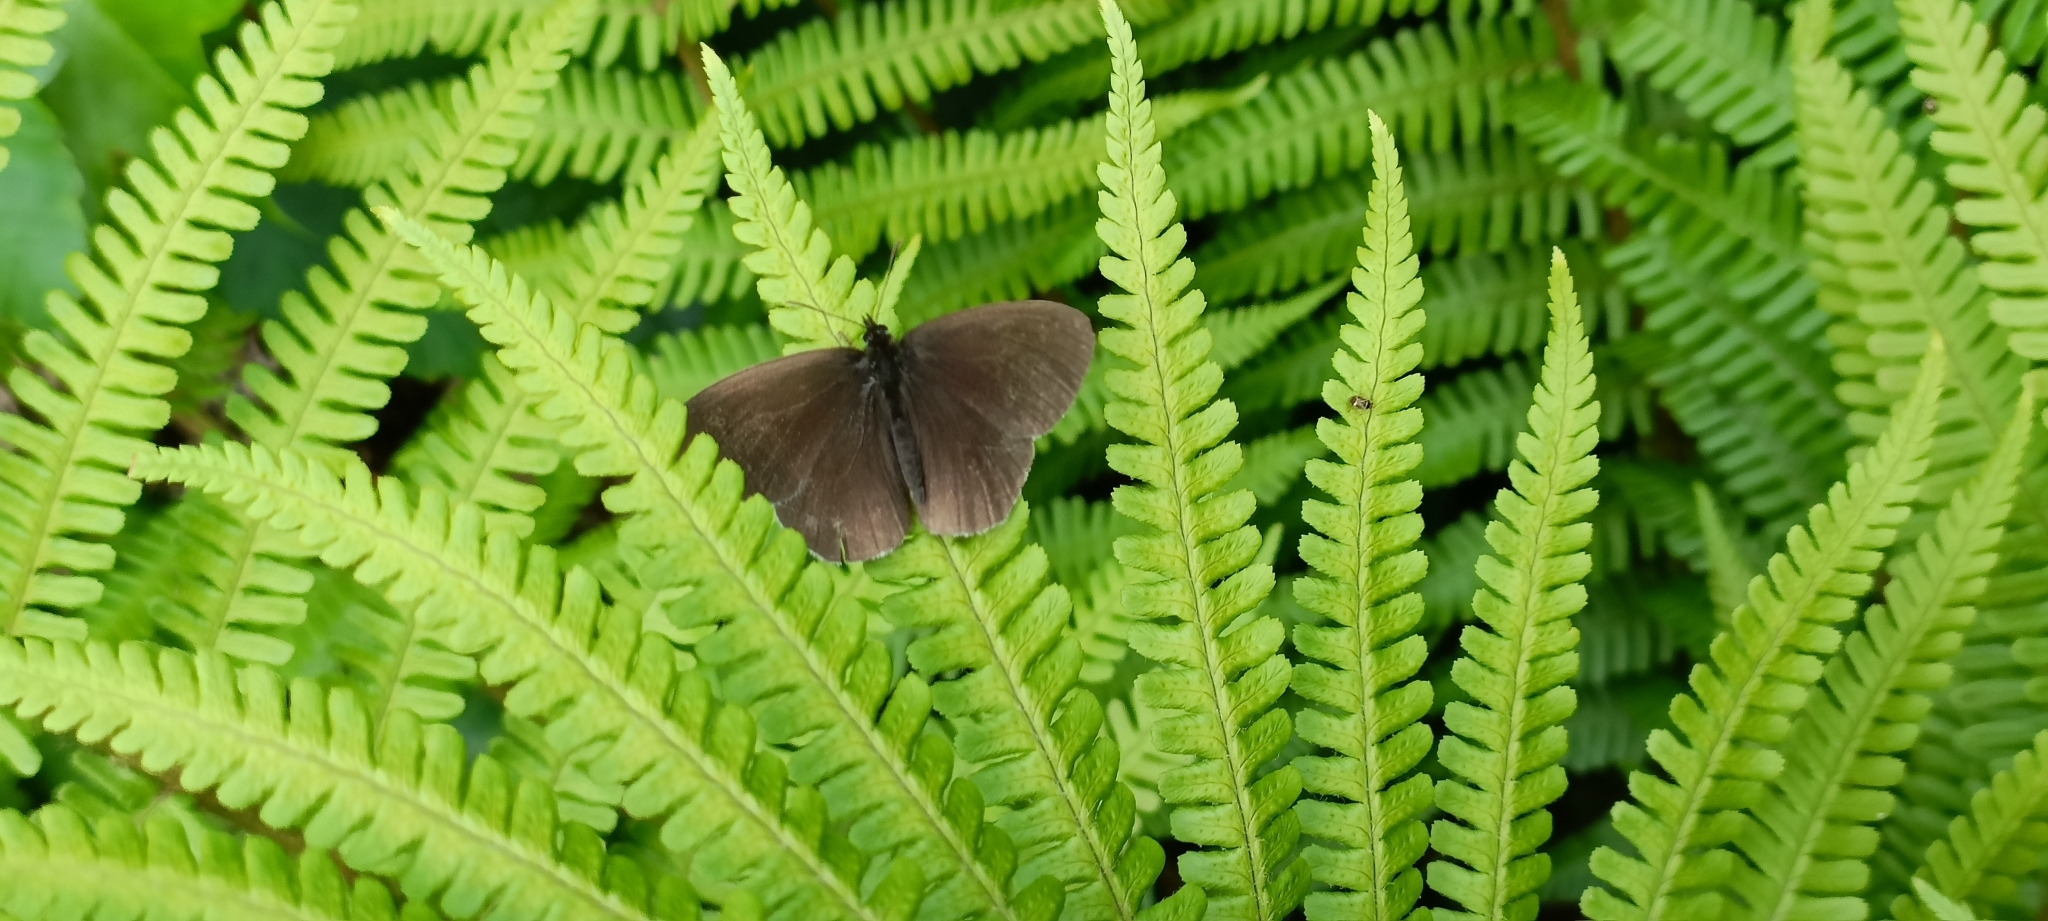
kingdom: Animalia
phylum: Arthropoda
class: Insecta
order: Lepidoptera
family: Nymphalidae
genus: Aphantopus
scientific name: Aphantopus hyperantus
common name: Ringlet
